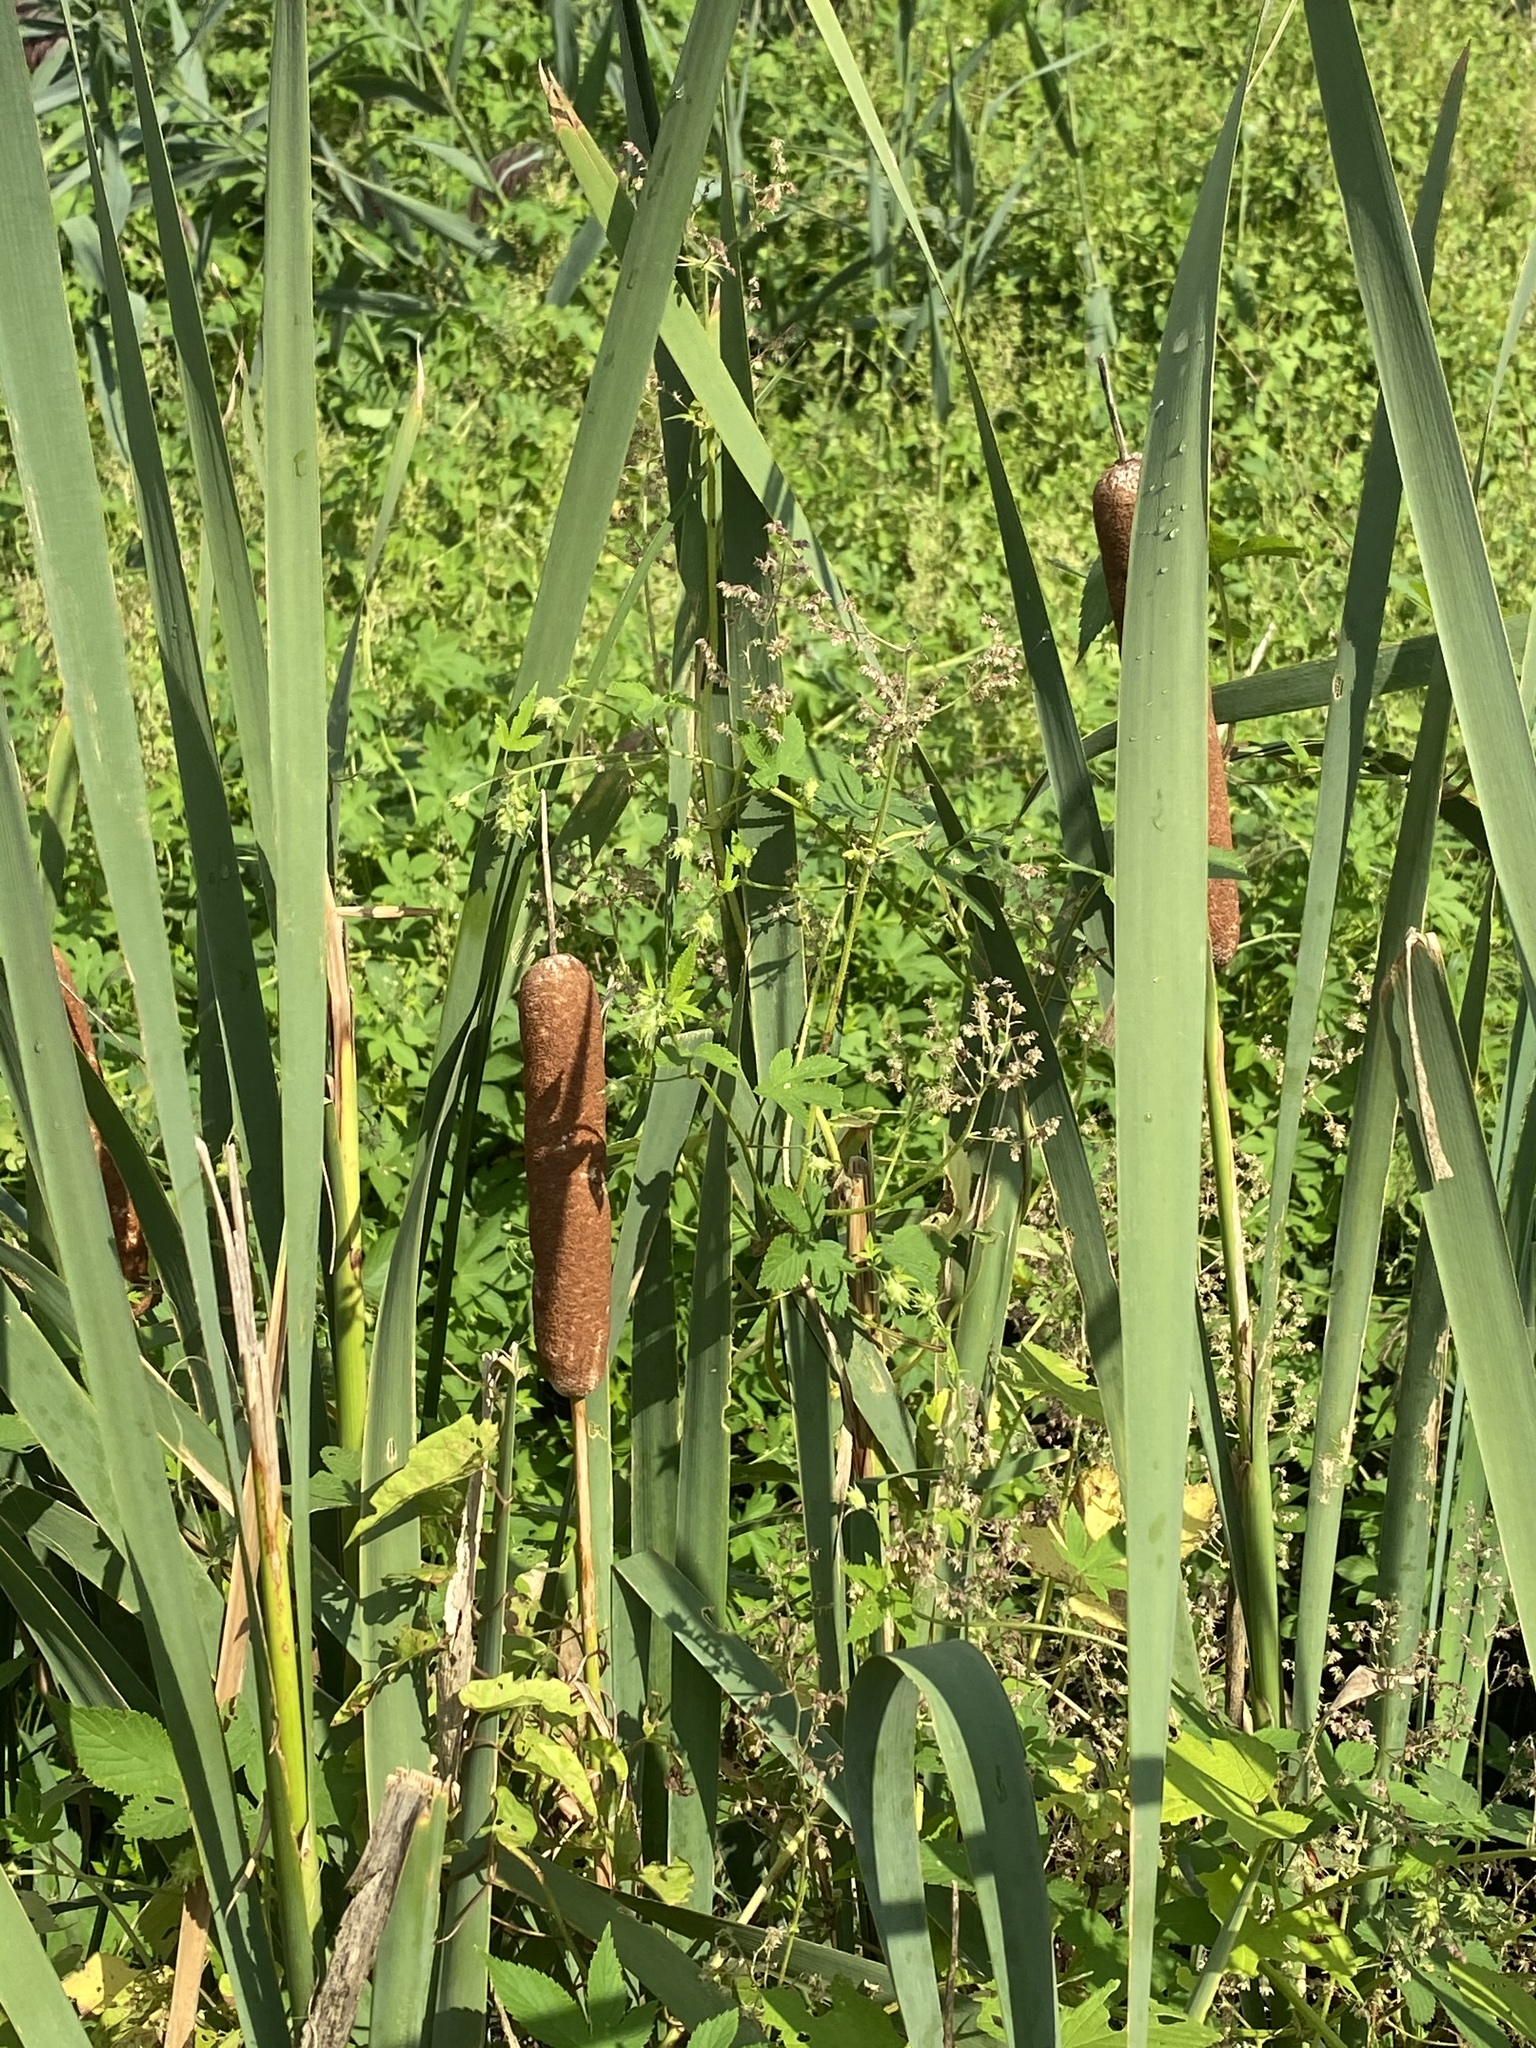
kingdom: Plantae
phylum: Tracheophyta
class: Liliopsida
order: Poales
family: Typhaceae
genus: Typha
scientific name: Typha latifolia
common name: Broadleaf cattail
